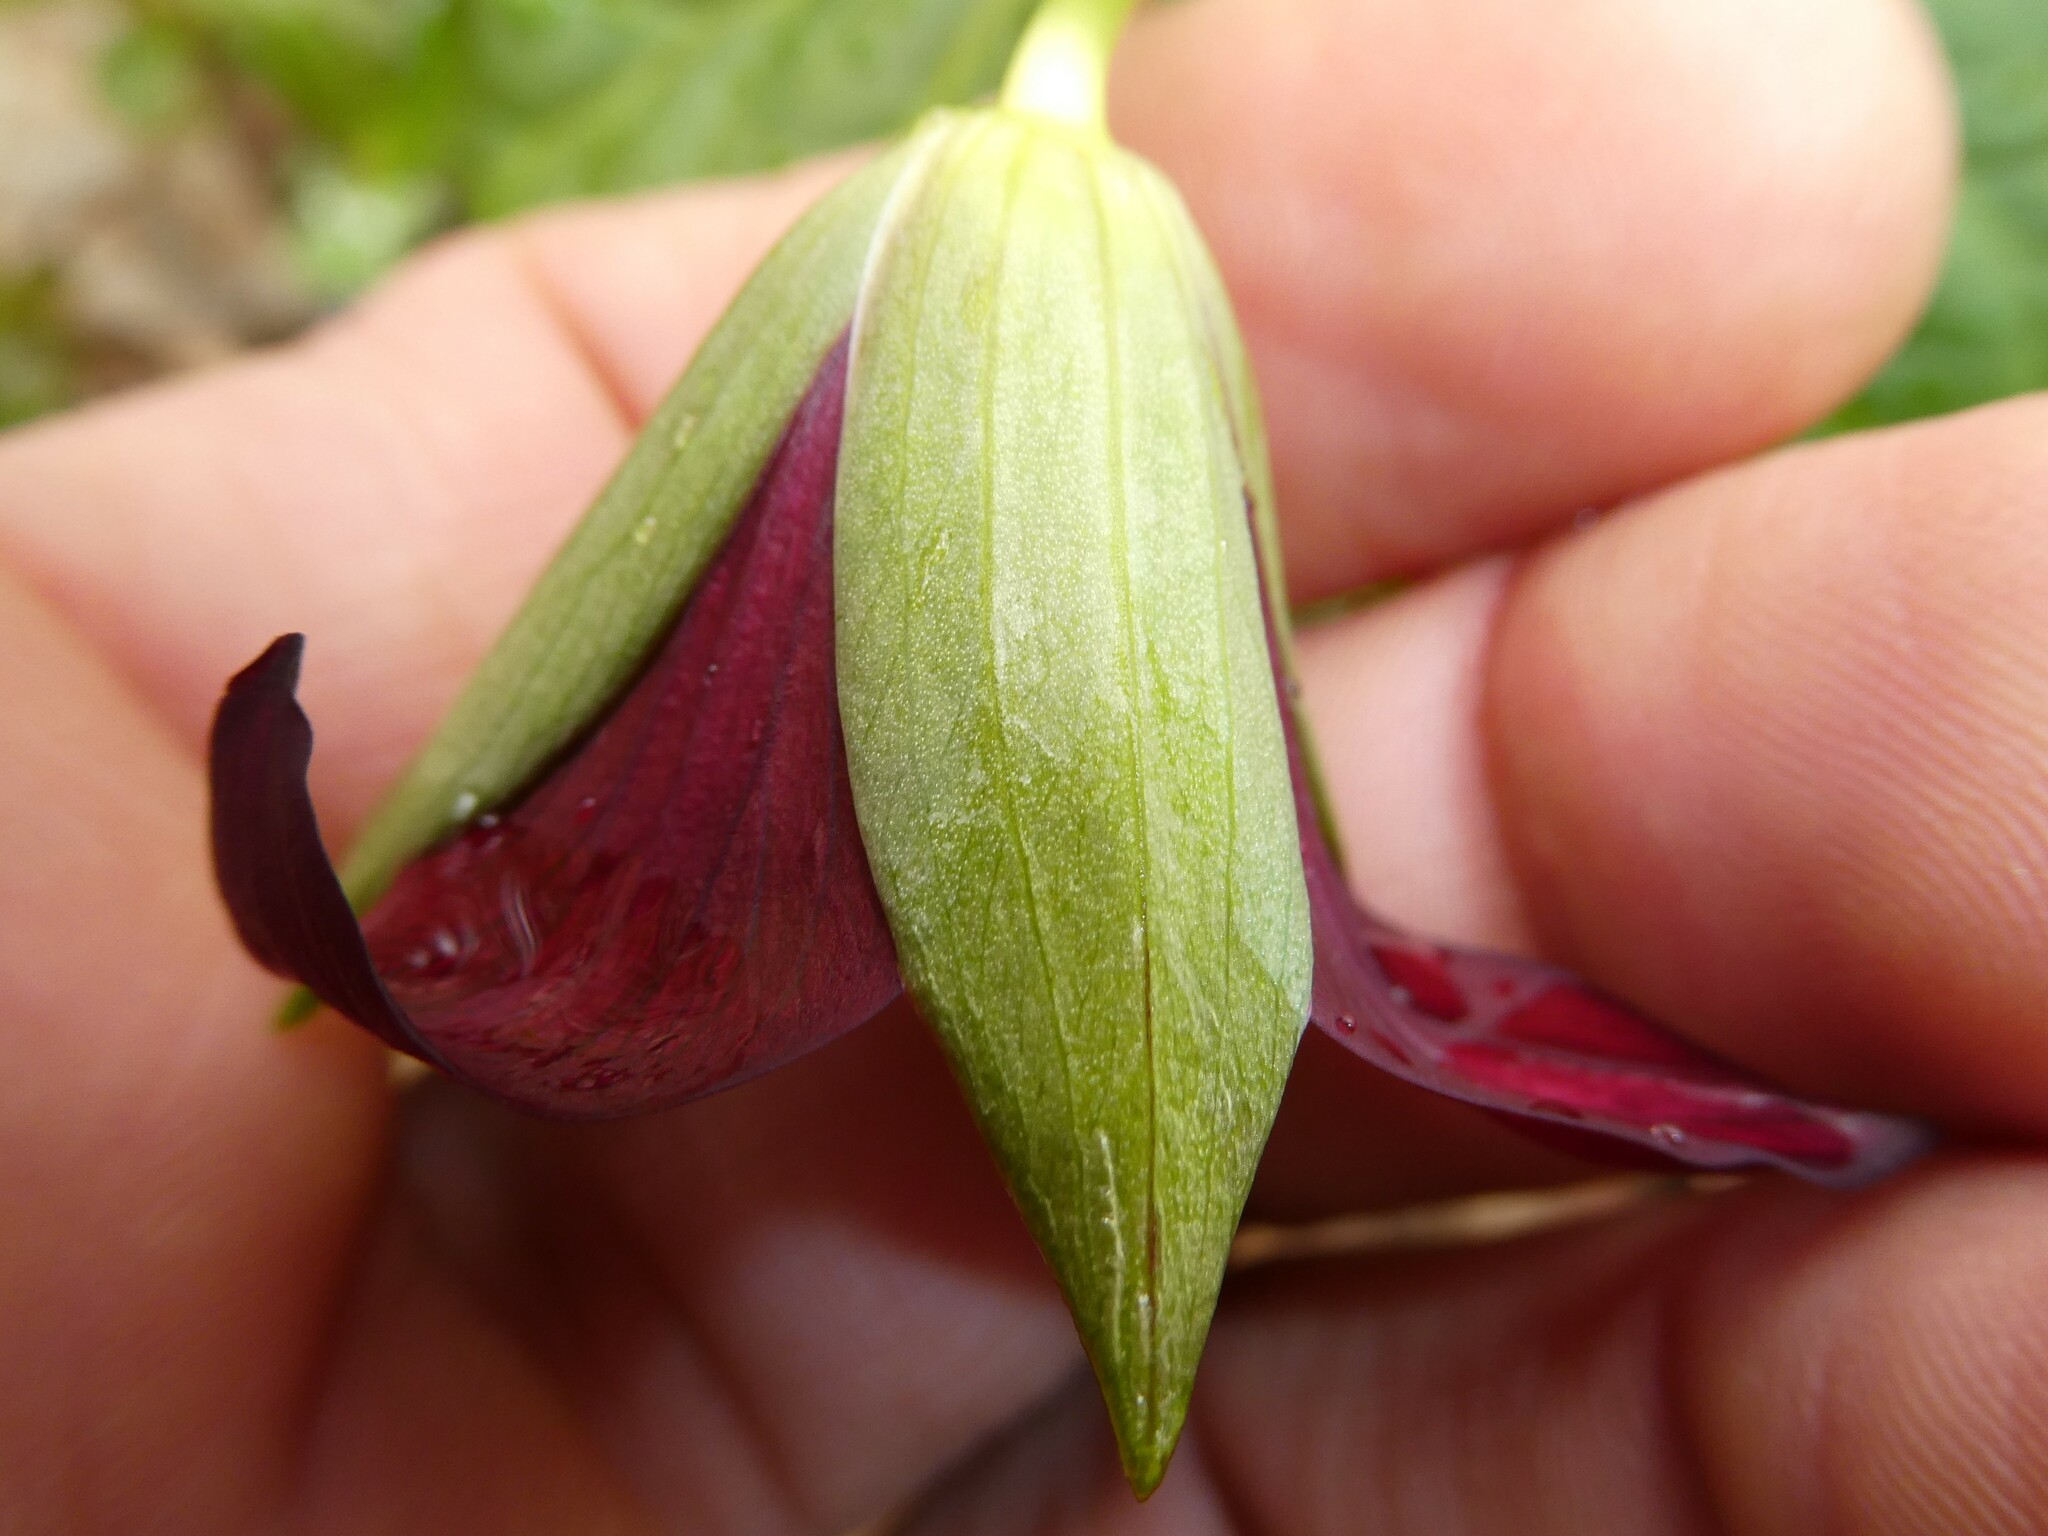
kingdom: Plantae
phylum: Tracheophyta
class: Liliopsida
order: Liliales
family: Melanthiaceae
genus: Trillium
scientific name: Trillium erectum
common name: Purple trillium
